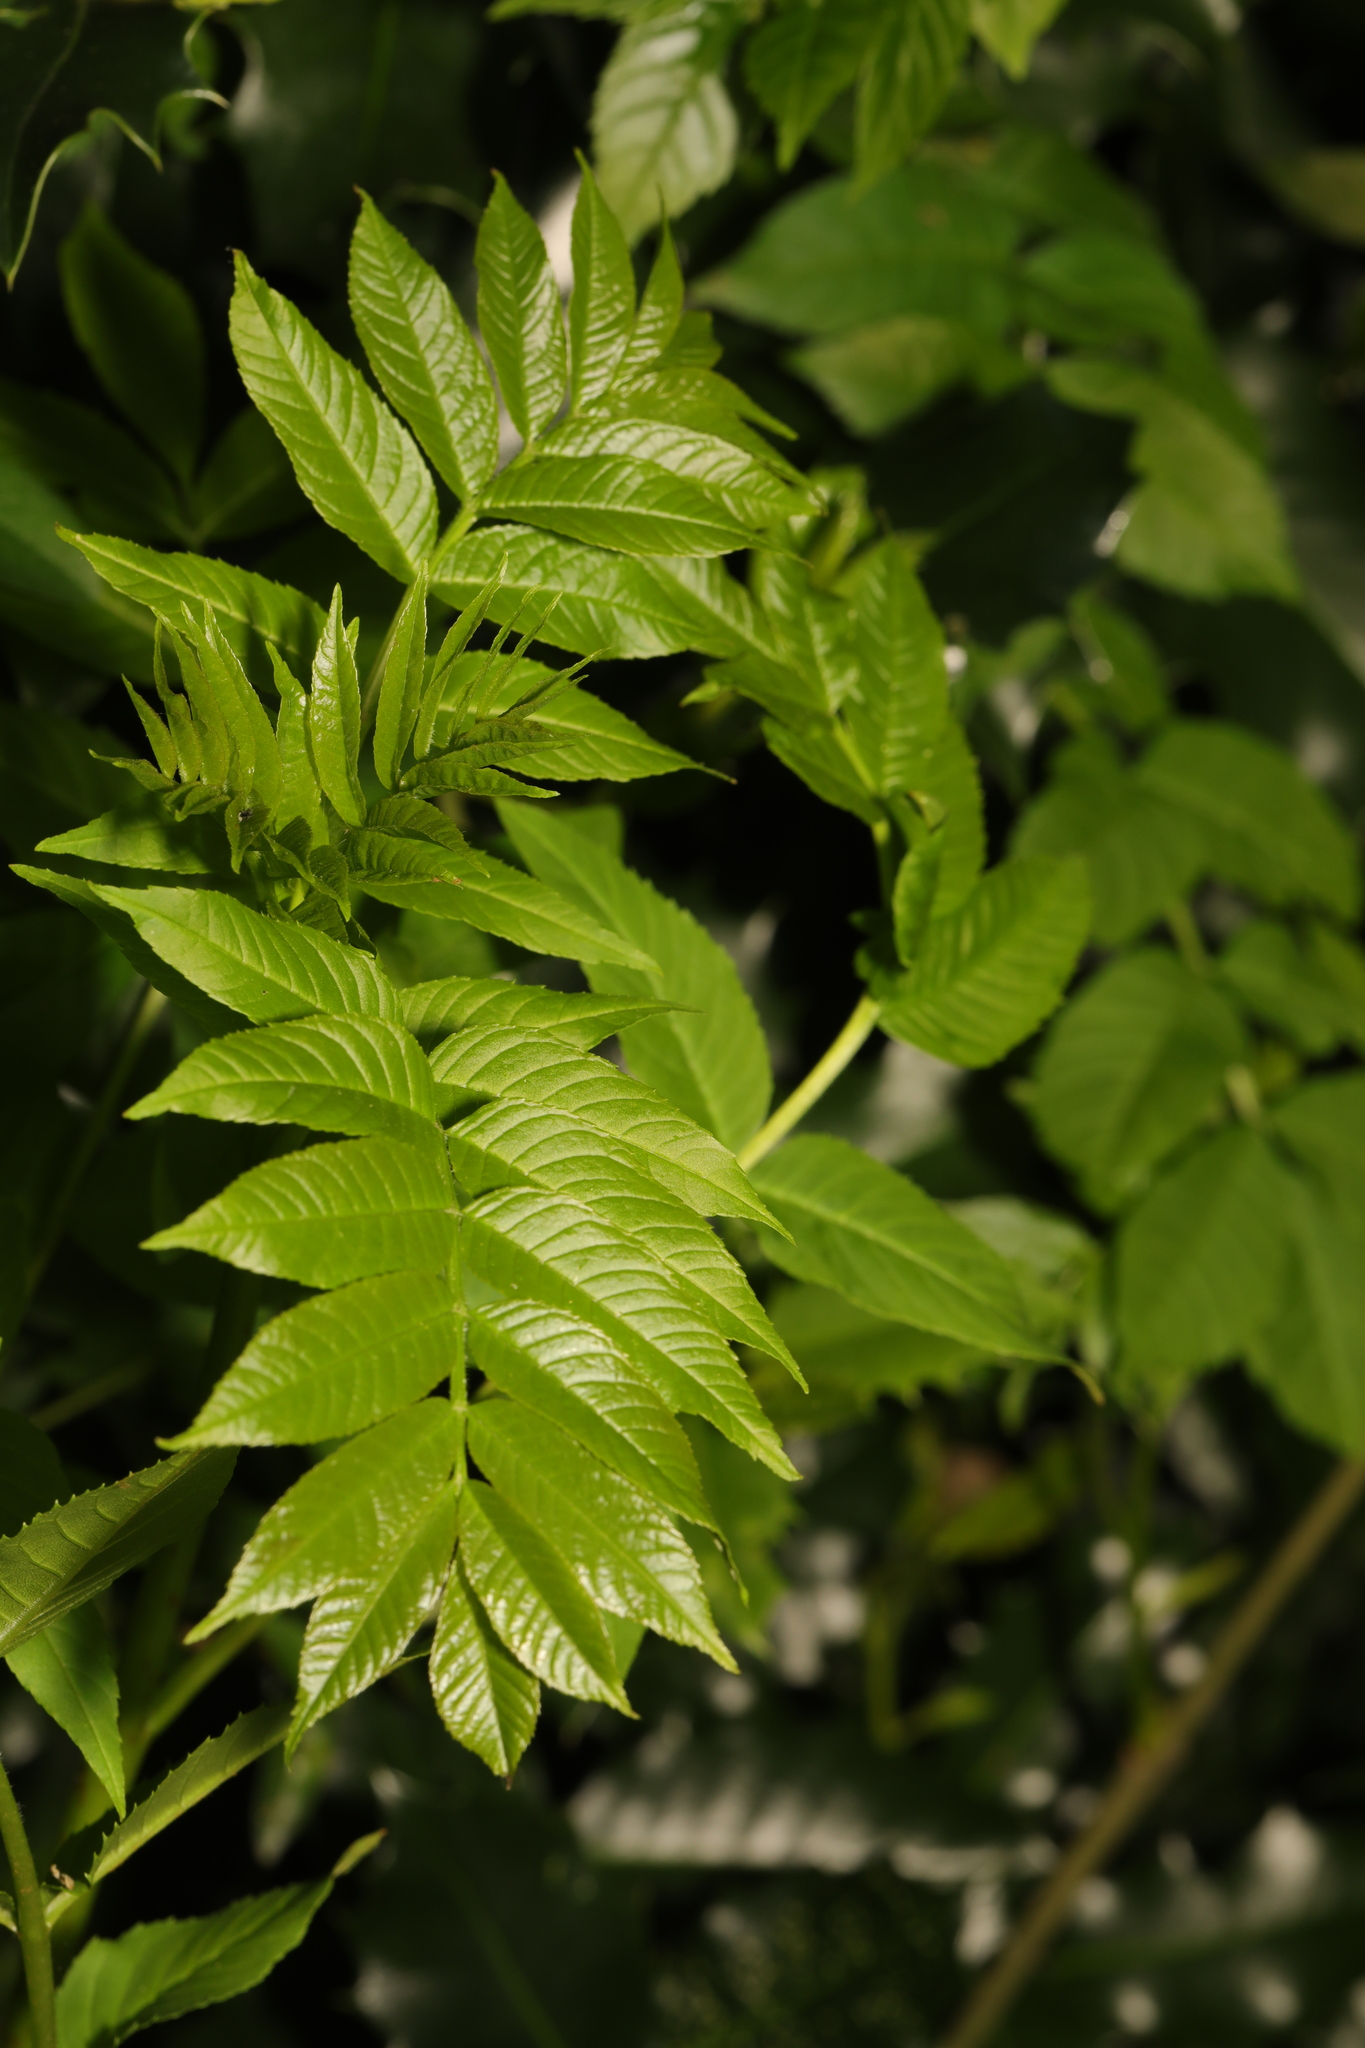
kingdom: Plantae
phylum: Tracheophyta
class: Magnoliopsida
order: Lamiales
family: Oleaceae
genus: Fraxinus
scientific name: Fraxinus excelsior
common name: European ash
